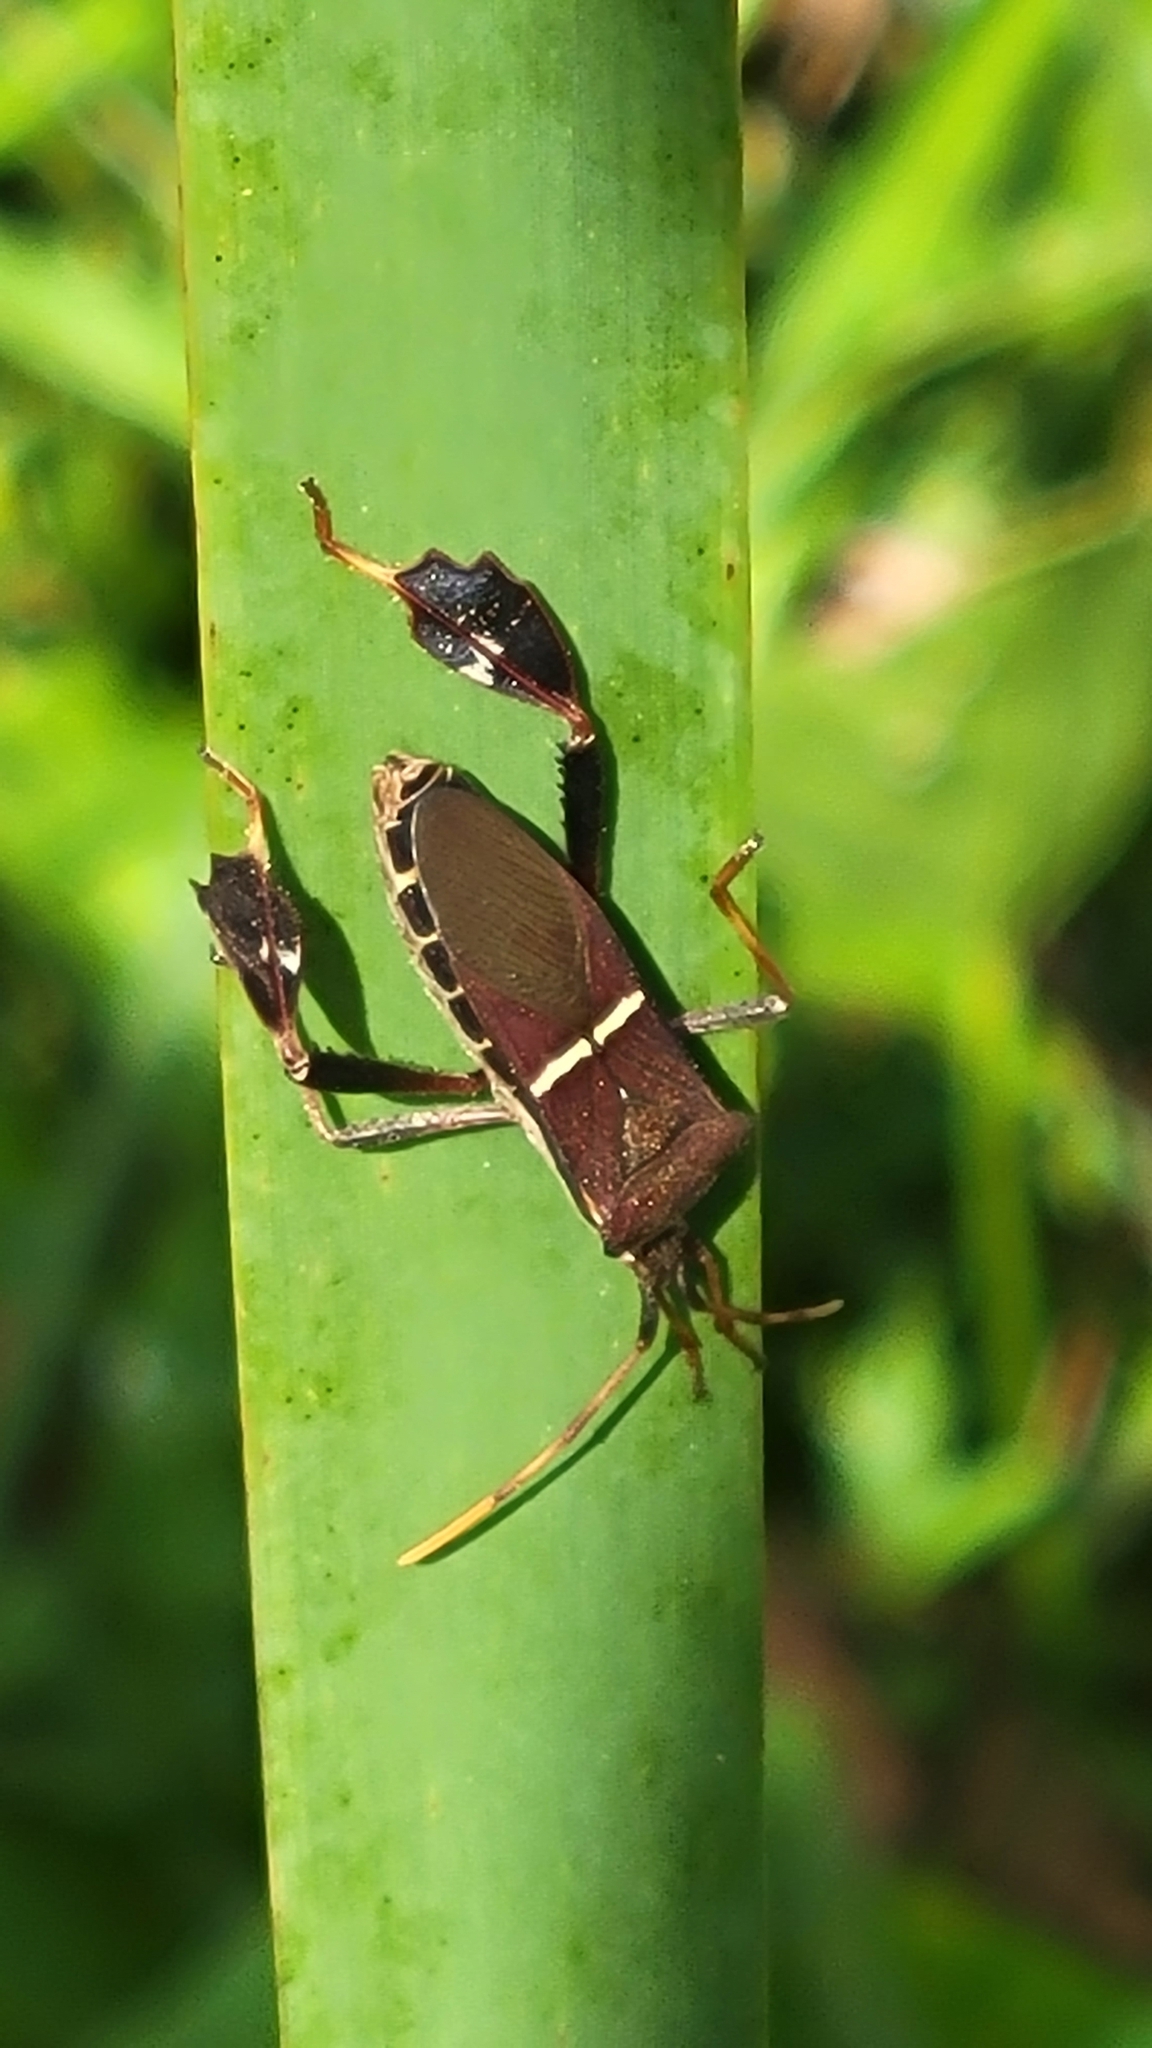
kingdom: Animalia
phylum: Arthropoda
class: Insecta
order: Hemiptera
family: Coreidae
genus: Leptoglossus
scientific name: Leptoglossus phyllopus
